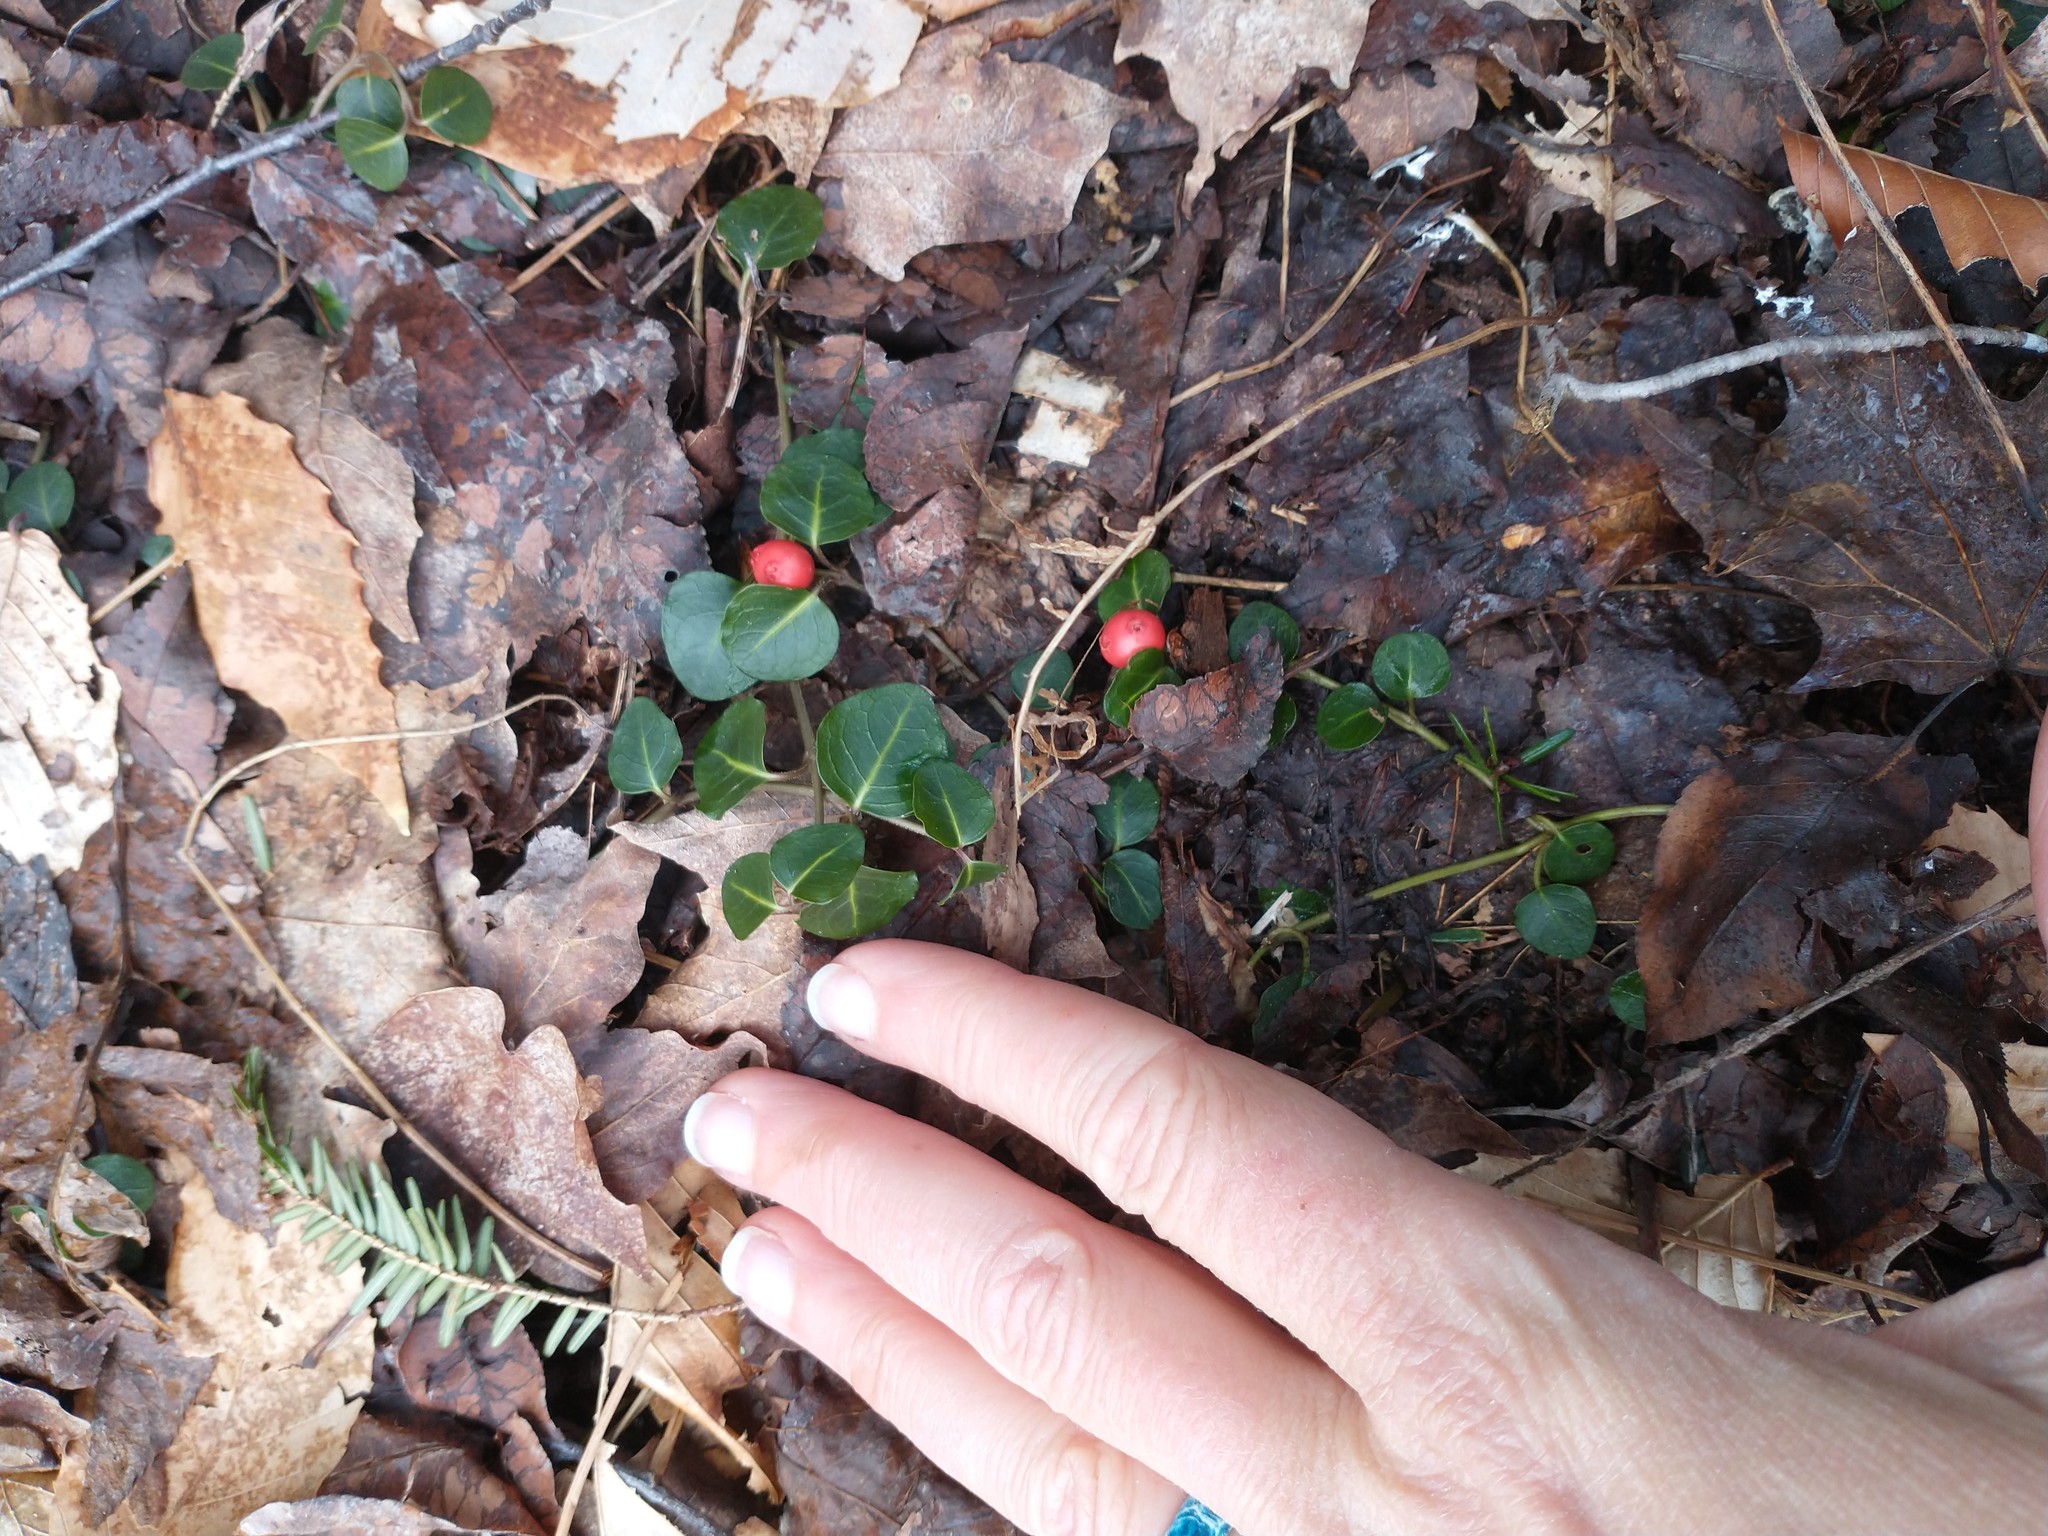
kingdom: Plantae
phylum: Tracheophyta
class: Magnoliopsida
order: Gentianales
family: Rubiaceae
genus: Mitchella
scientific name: Mitchella repens
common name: Partridge-berry
